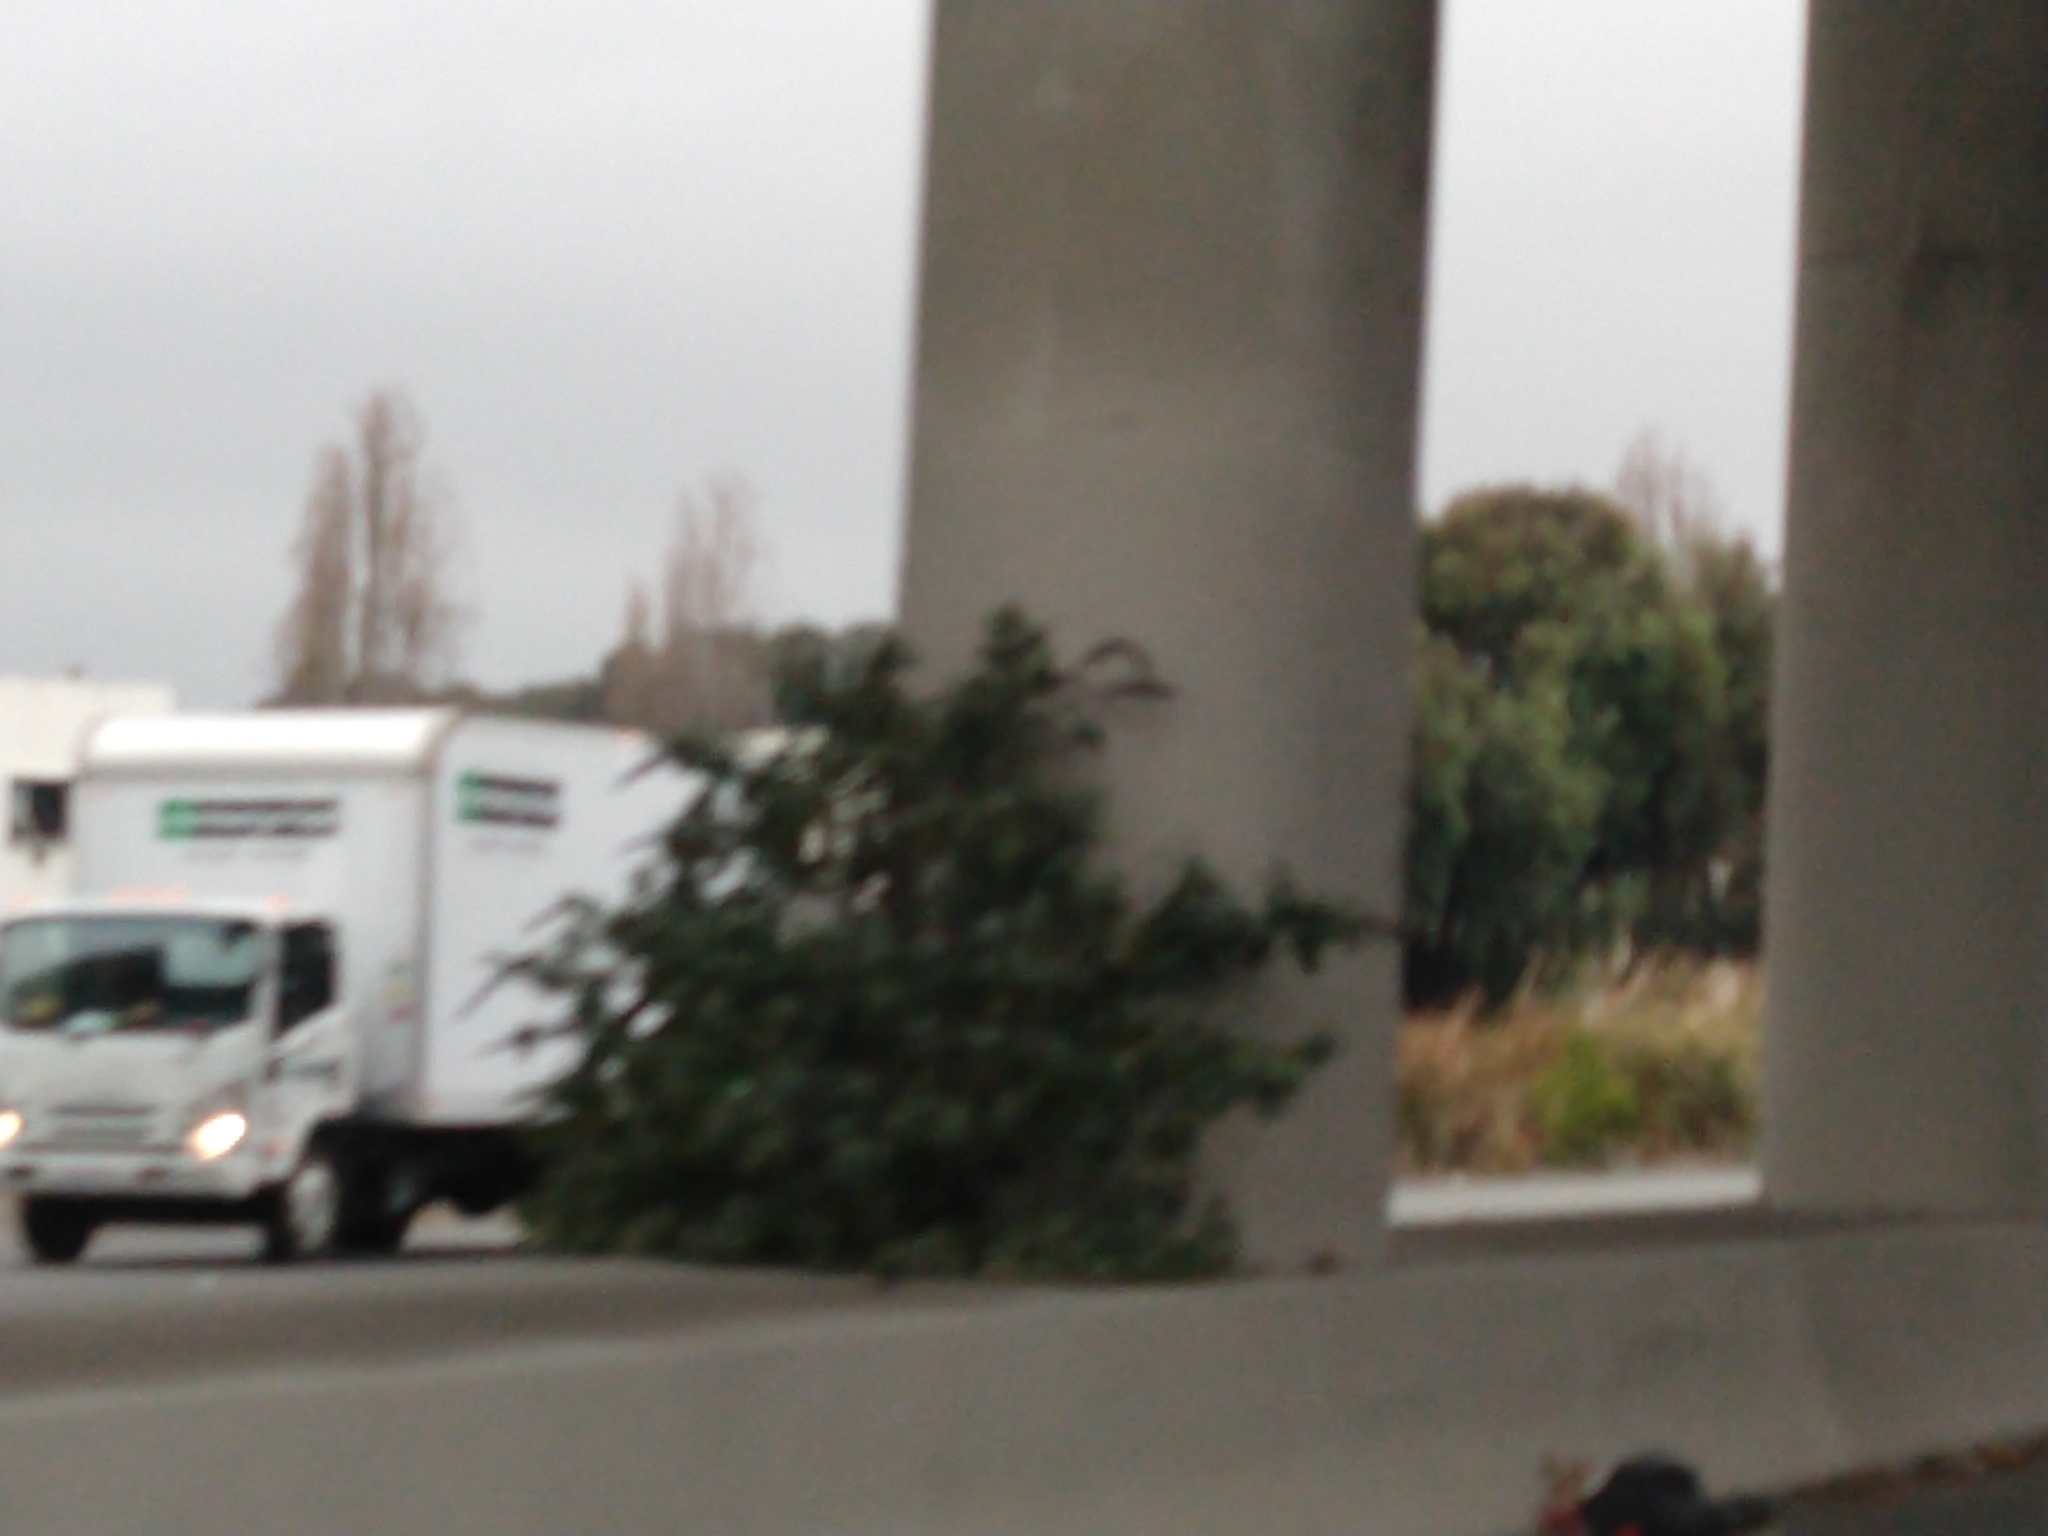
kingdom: Plantae
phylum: Tracheophyta
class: Magnoliopsida
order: Lamiales
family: Scrophulariaceae
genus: Buddleja
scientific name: Buddleja davidii
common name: Butterfly-bush
